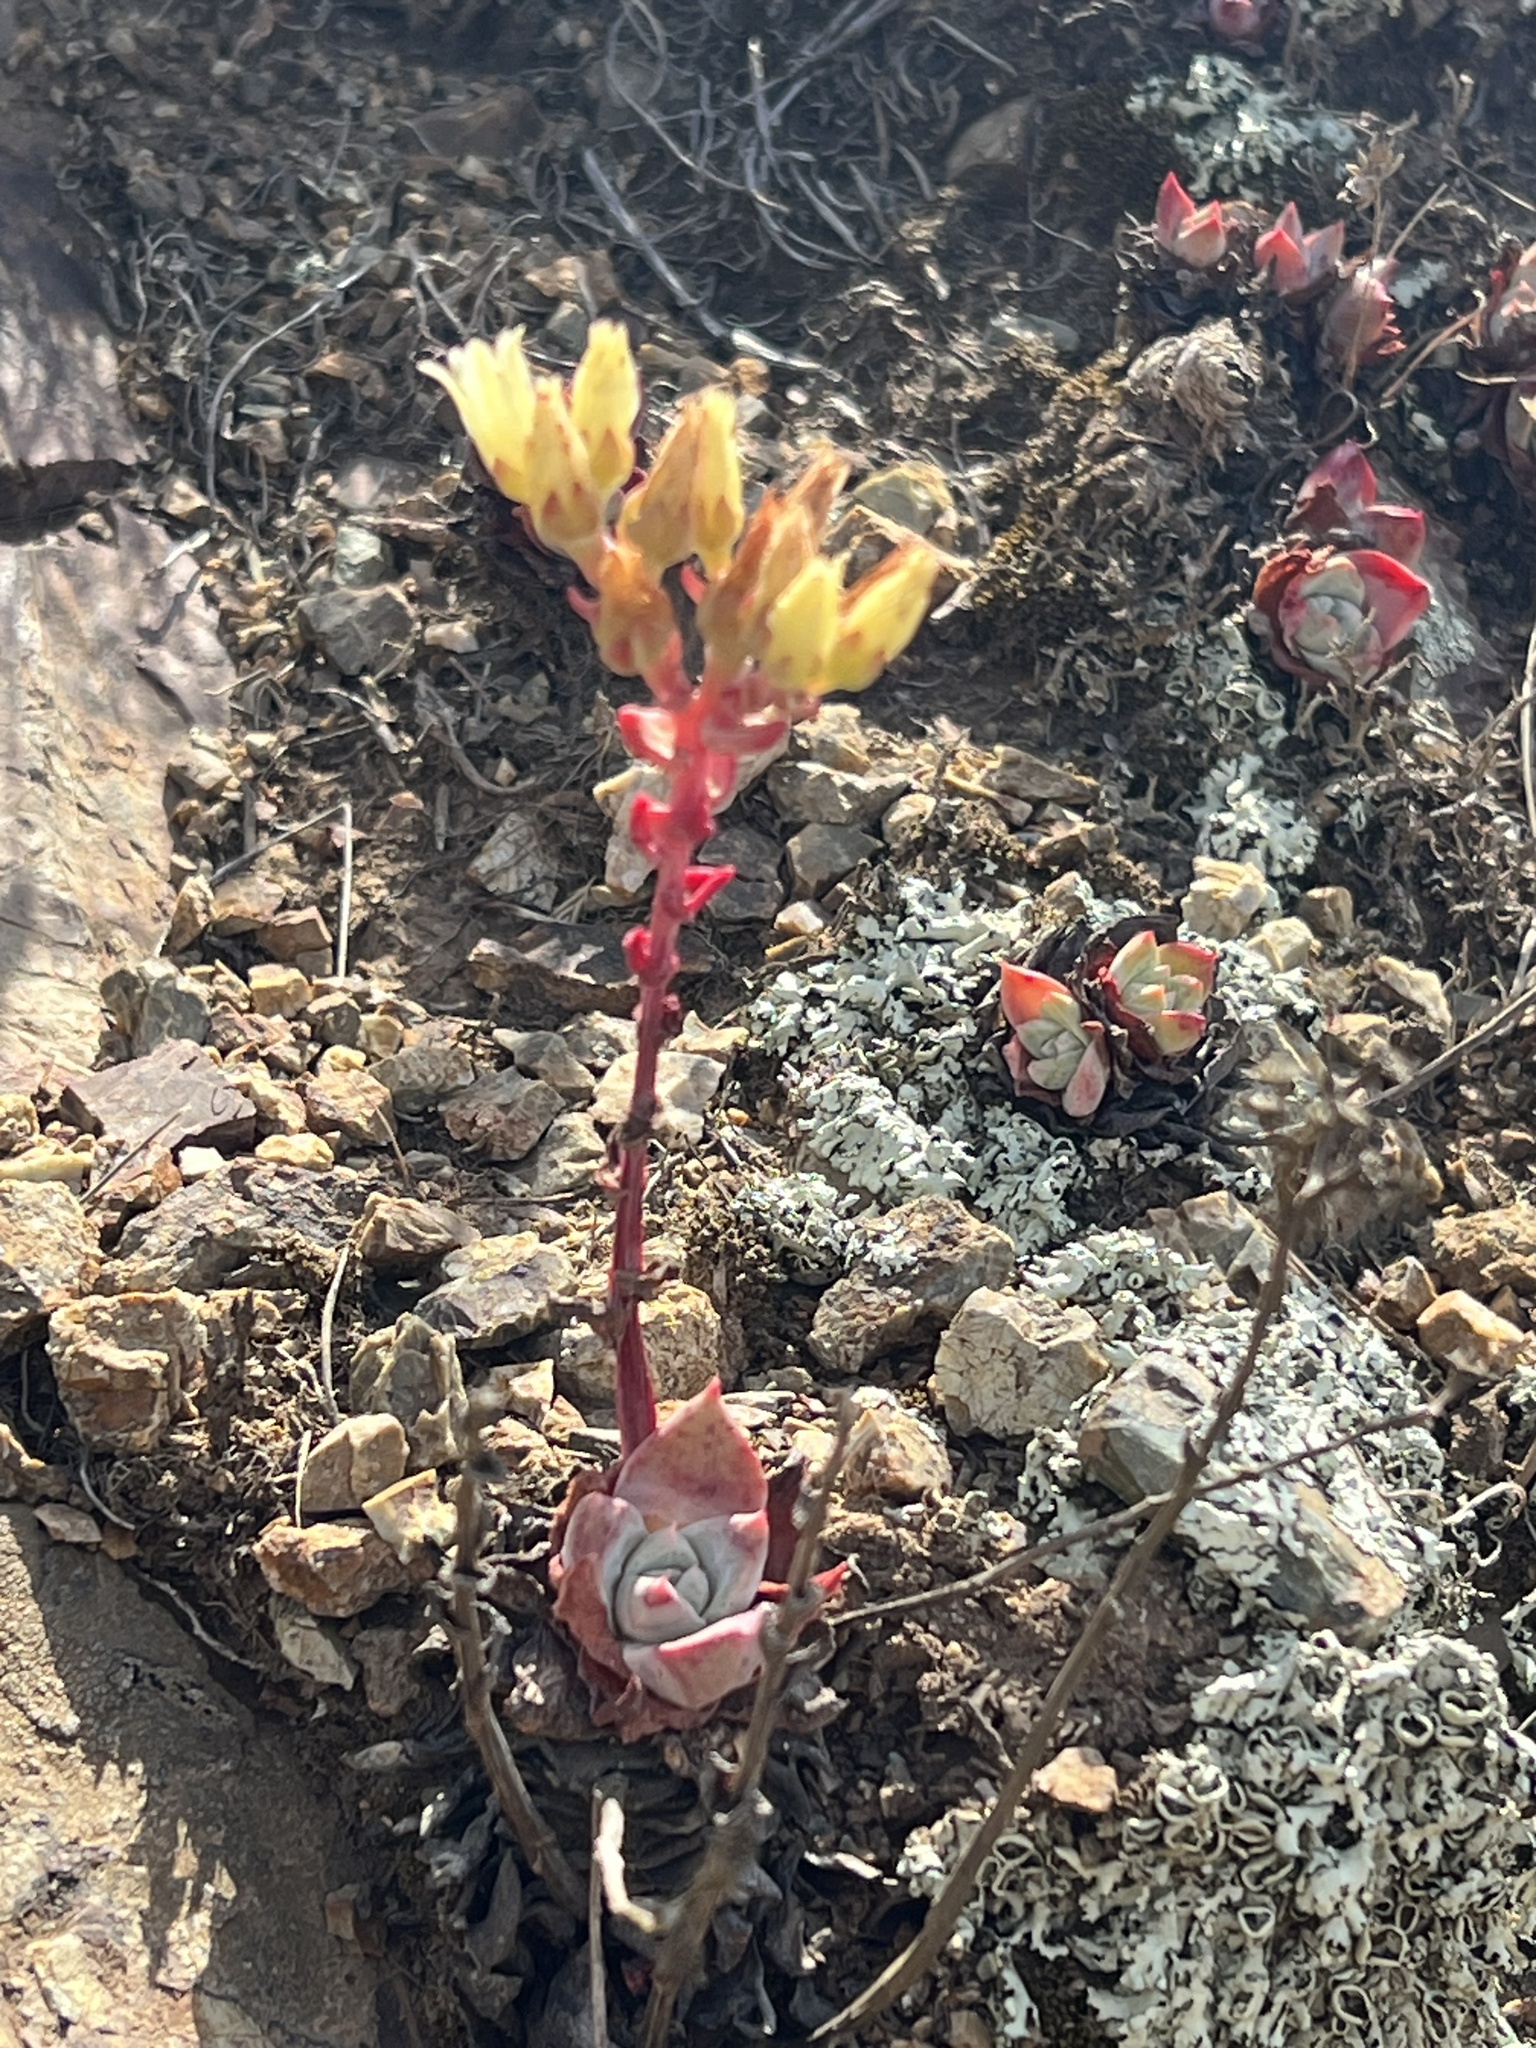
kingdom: Plantae
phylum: Tracheophyta
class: Magnoliopsida
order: Saxifragales
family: Crassulaceae
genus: Dudleya
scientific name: Dudleya farinosa
